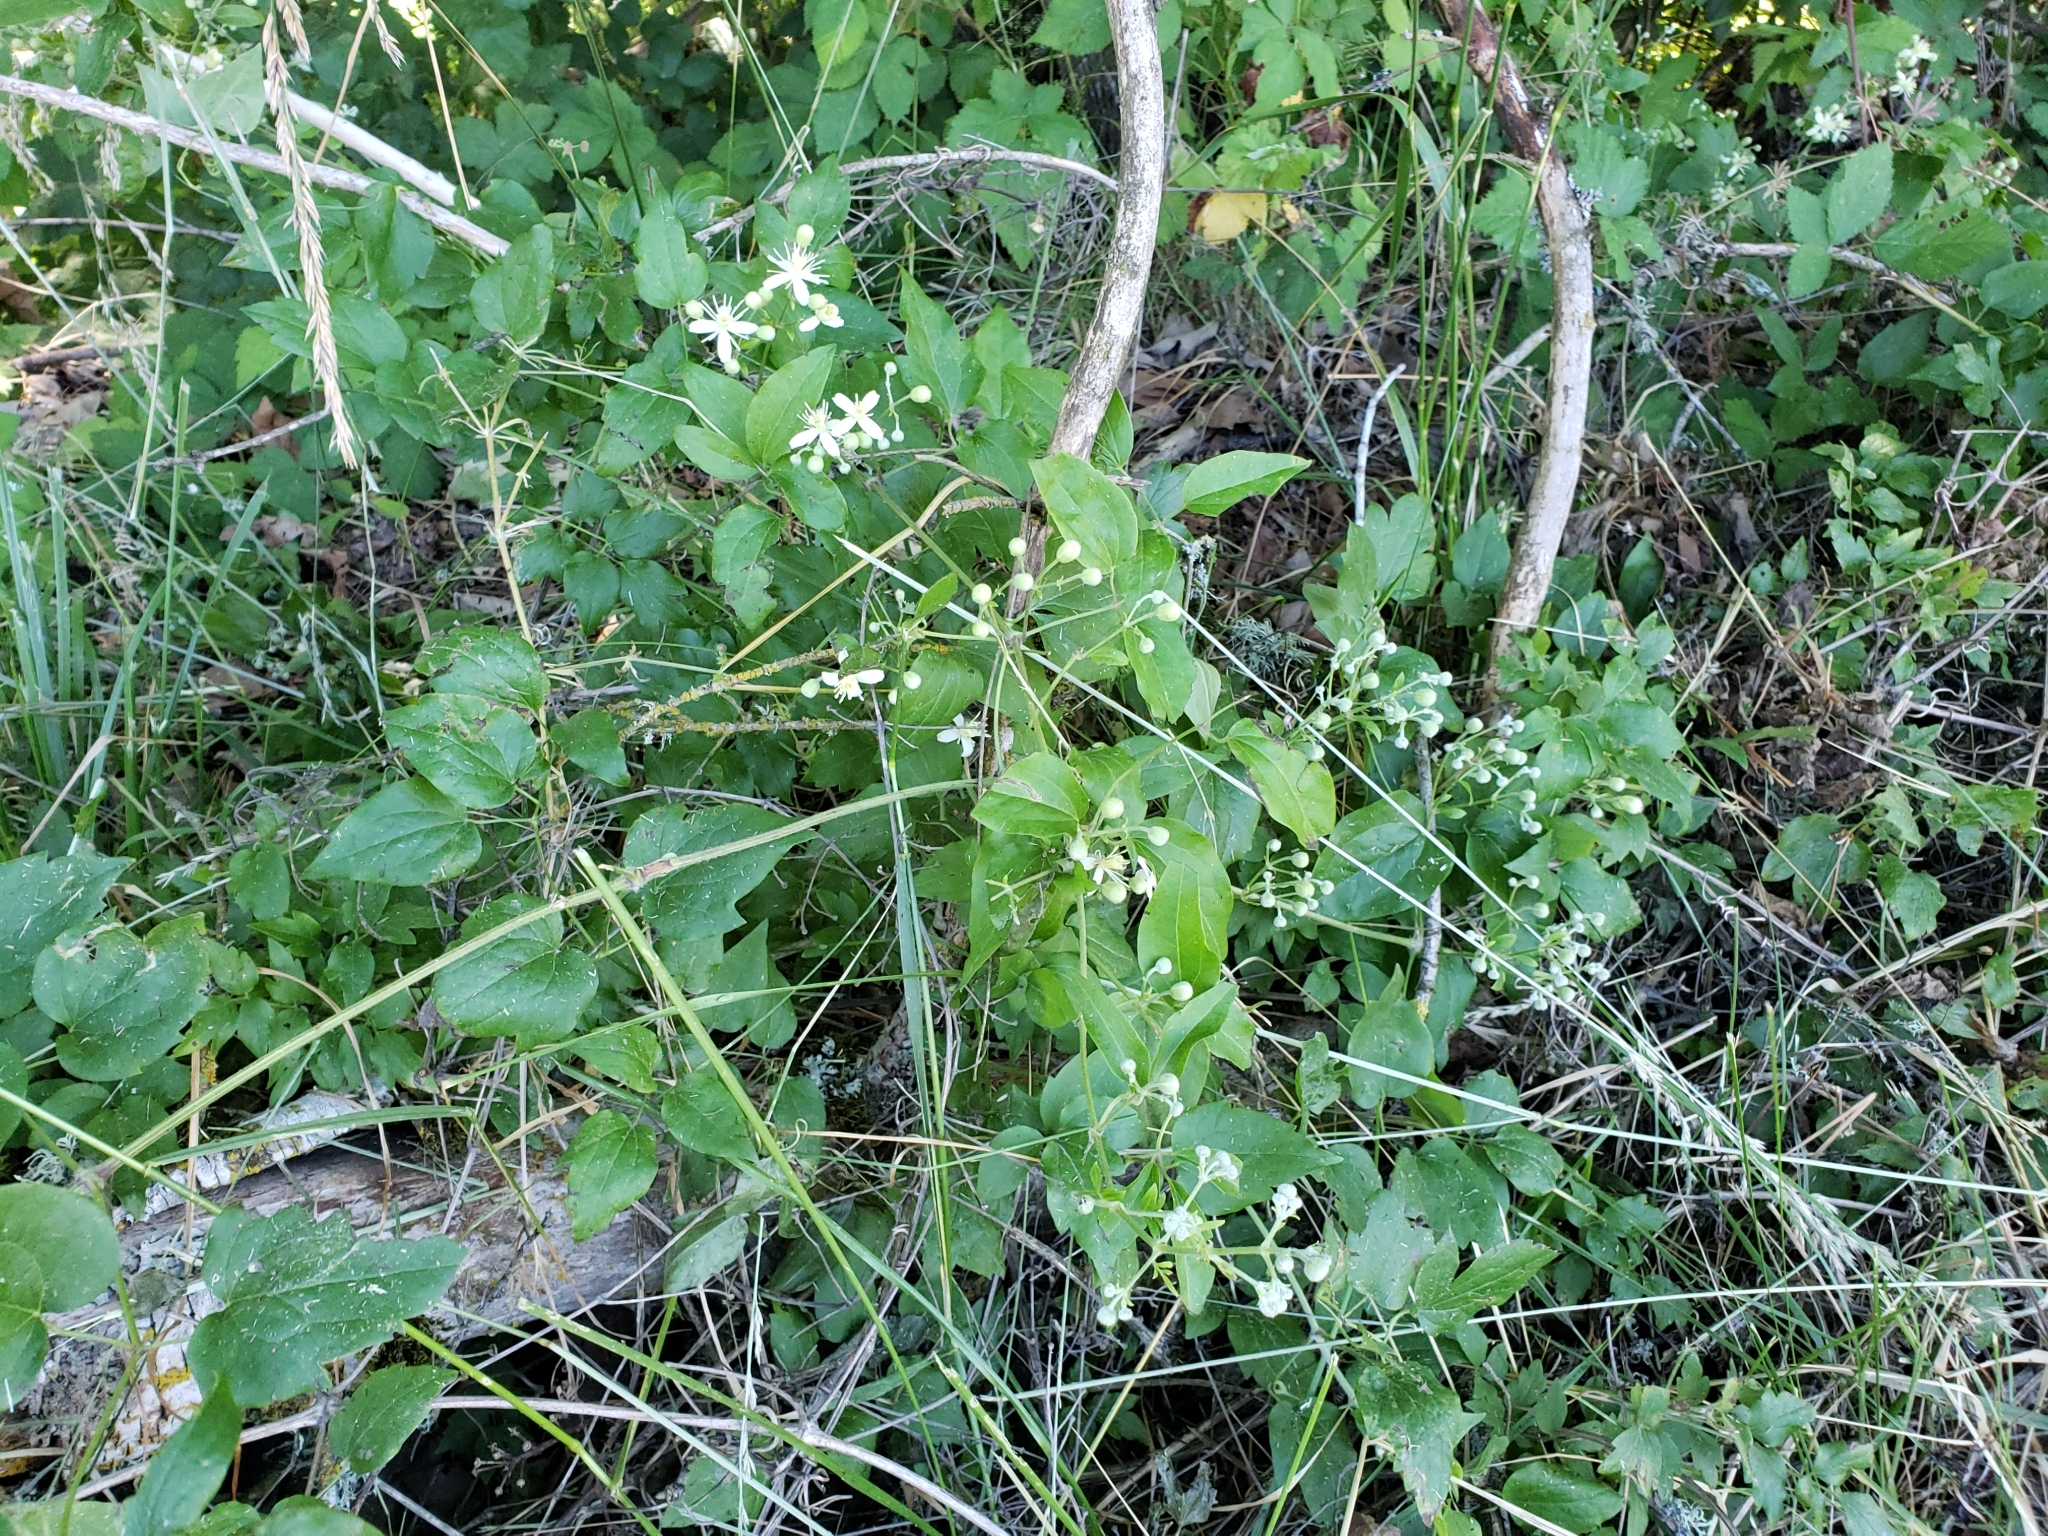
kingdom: Plantae
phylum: Tracheophyta
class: Magnoliopsida
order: Ranunculales
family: Ranunculaceae
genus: Clematis
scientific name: Clematis ligusticifolia
